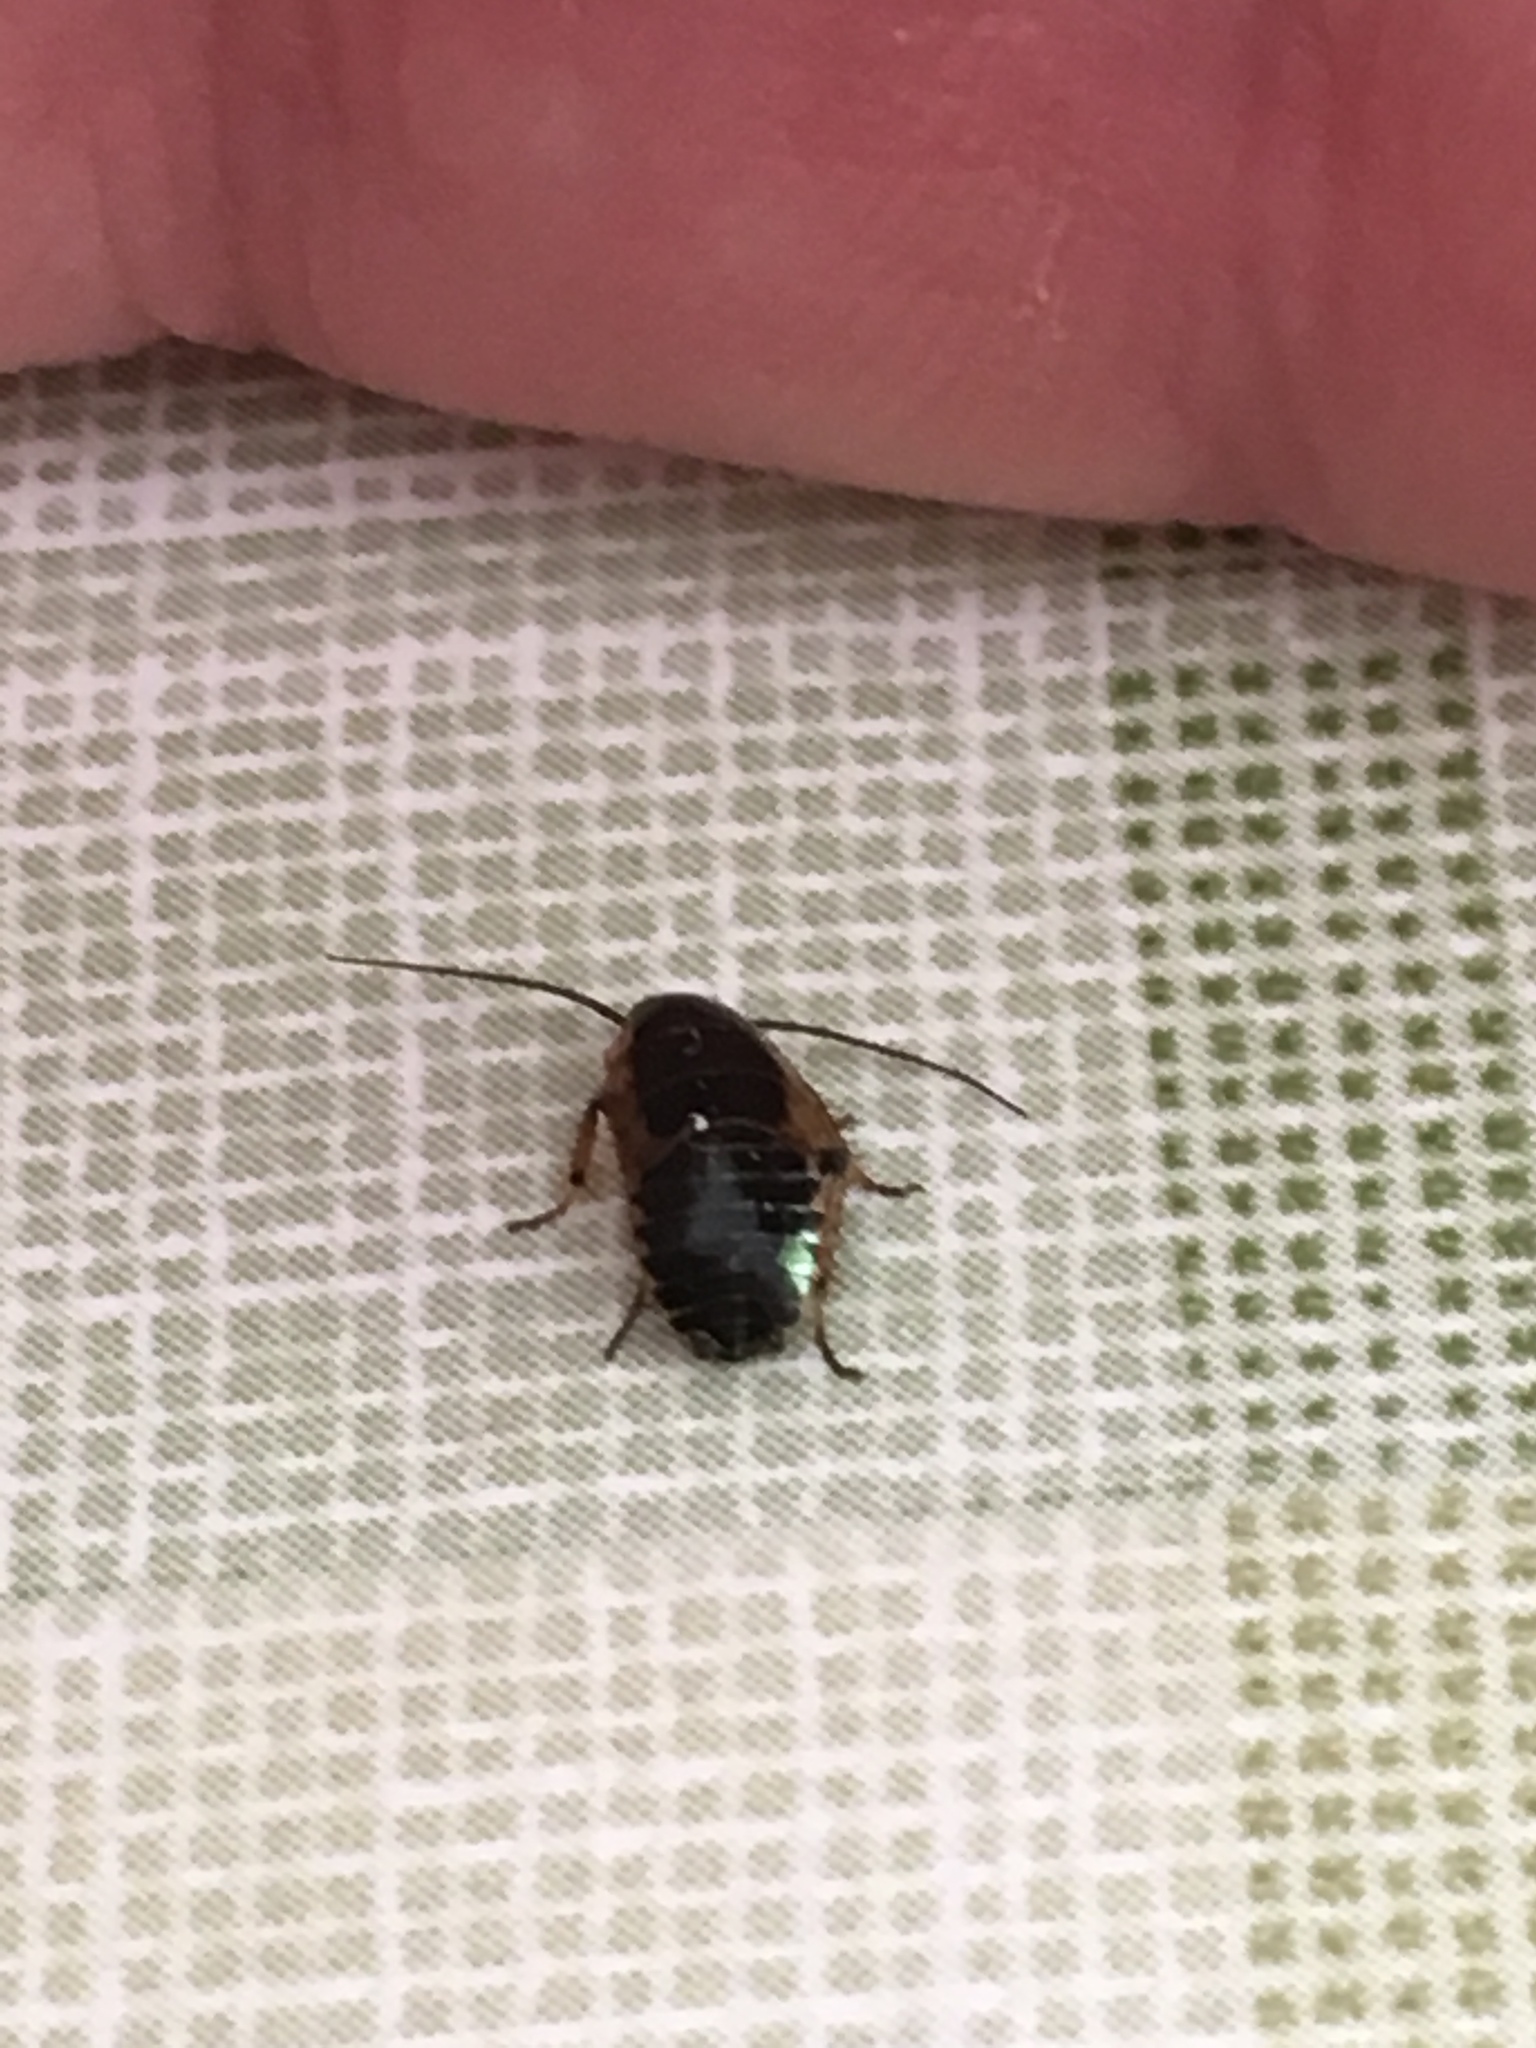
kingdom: Animalia
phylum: Arthropoda
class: Insecta
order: Blattodea
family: Ectobiidae
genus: Ectobius
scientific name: Ectobius sylvestris
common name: Forest cockroach
